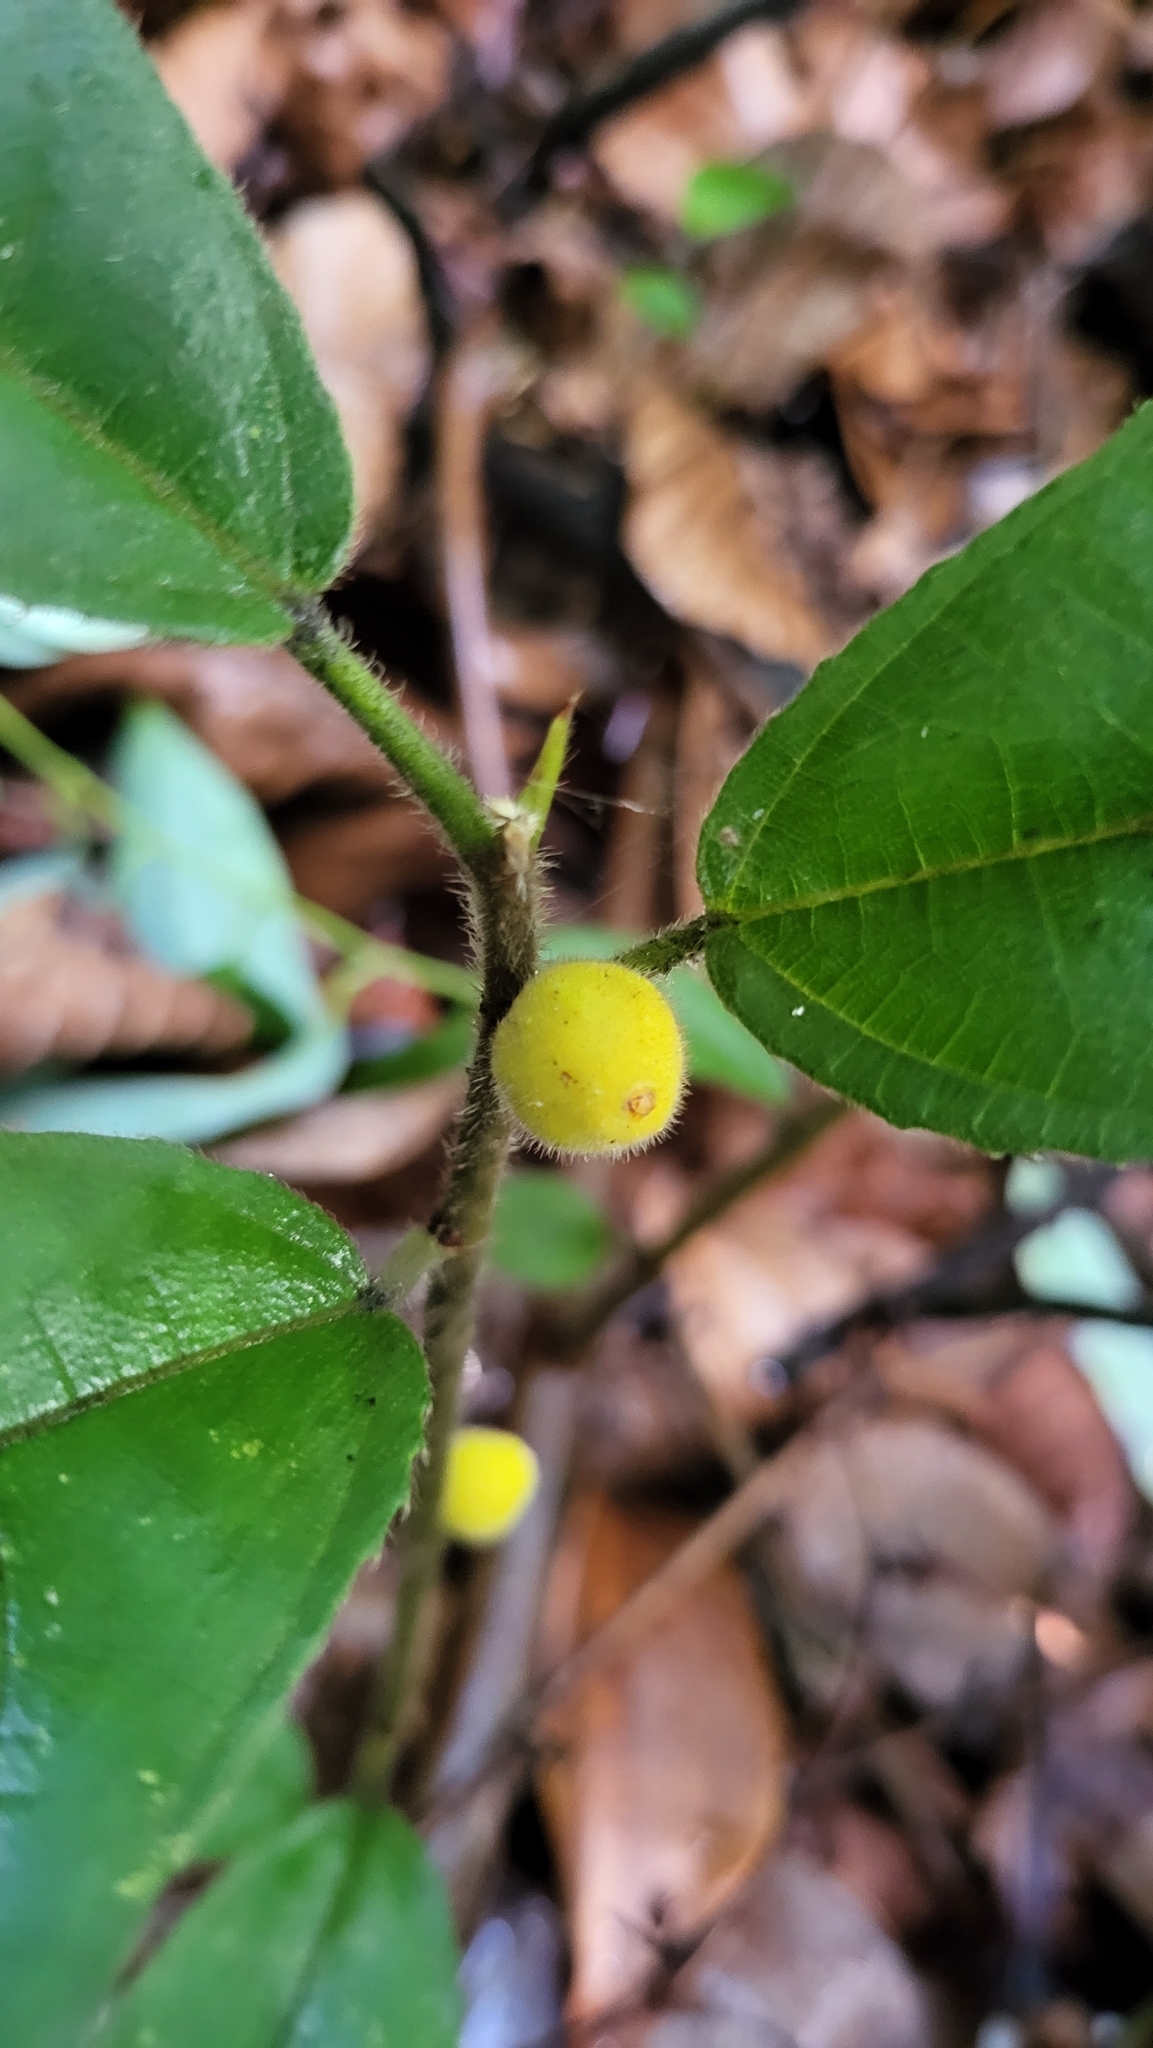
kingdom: Plantae
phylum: Tracheophyta
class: Magnoliopsida
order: Rosales
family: Moraceae
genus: Ficus
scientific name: Ficus aurata
